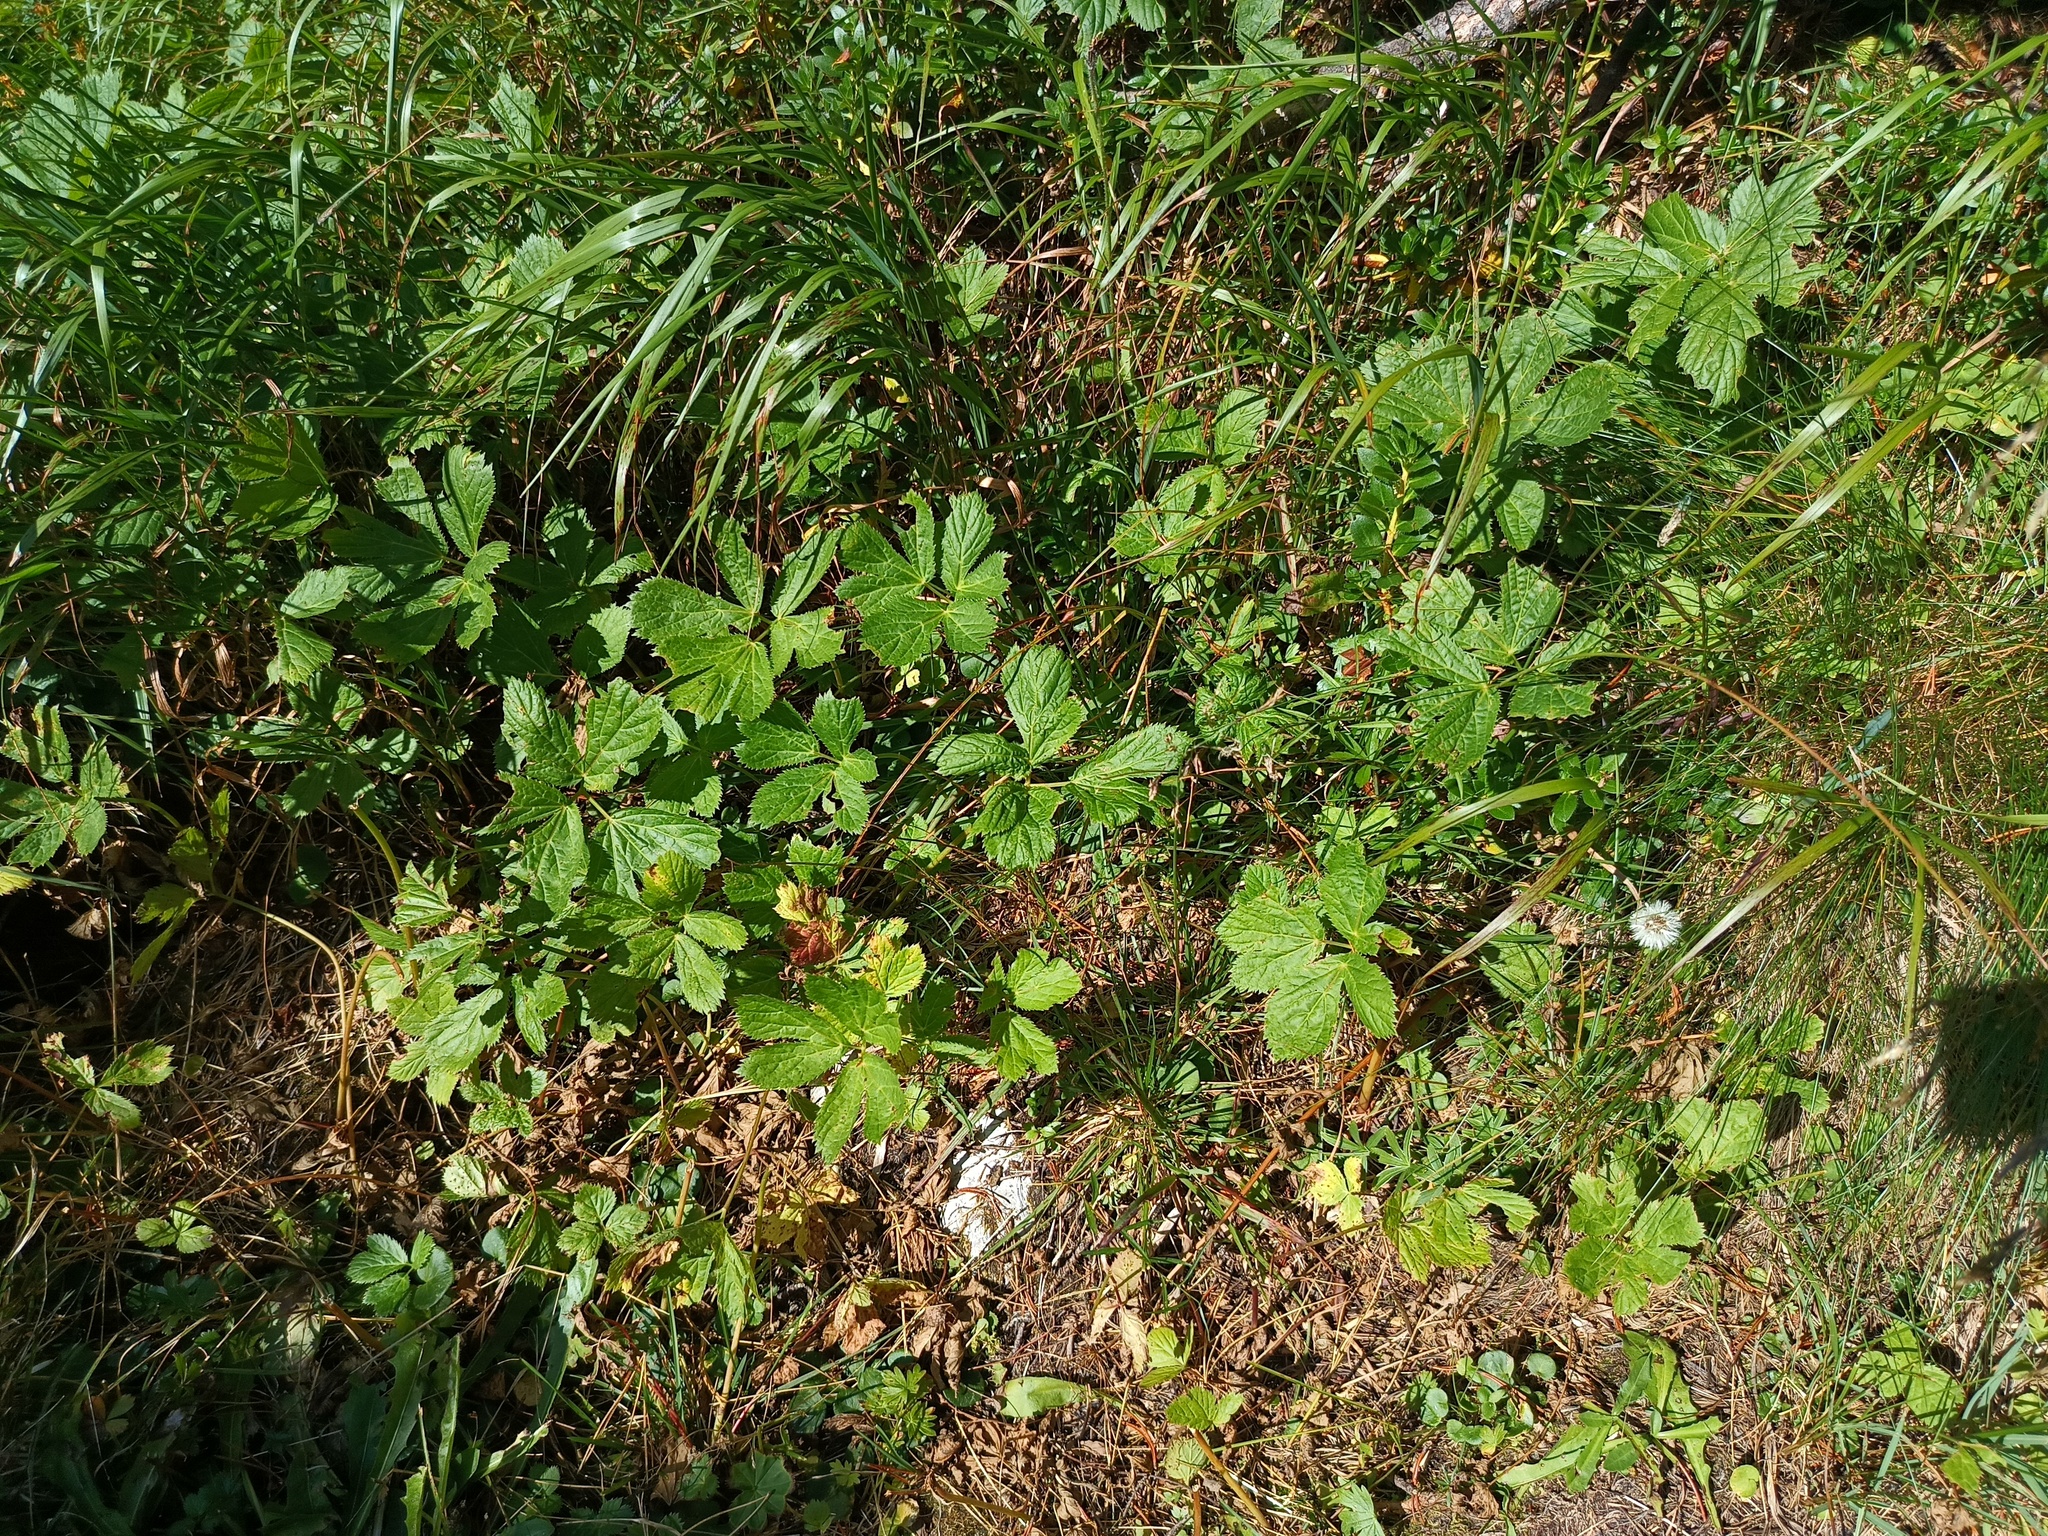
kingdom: Plantae
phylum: Tracheophyta
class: Magnoliopsida
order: Apiales
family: Apiaceae
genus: Imperatoria
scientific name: Imperatoria ostruthium
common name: Masterwort
